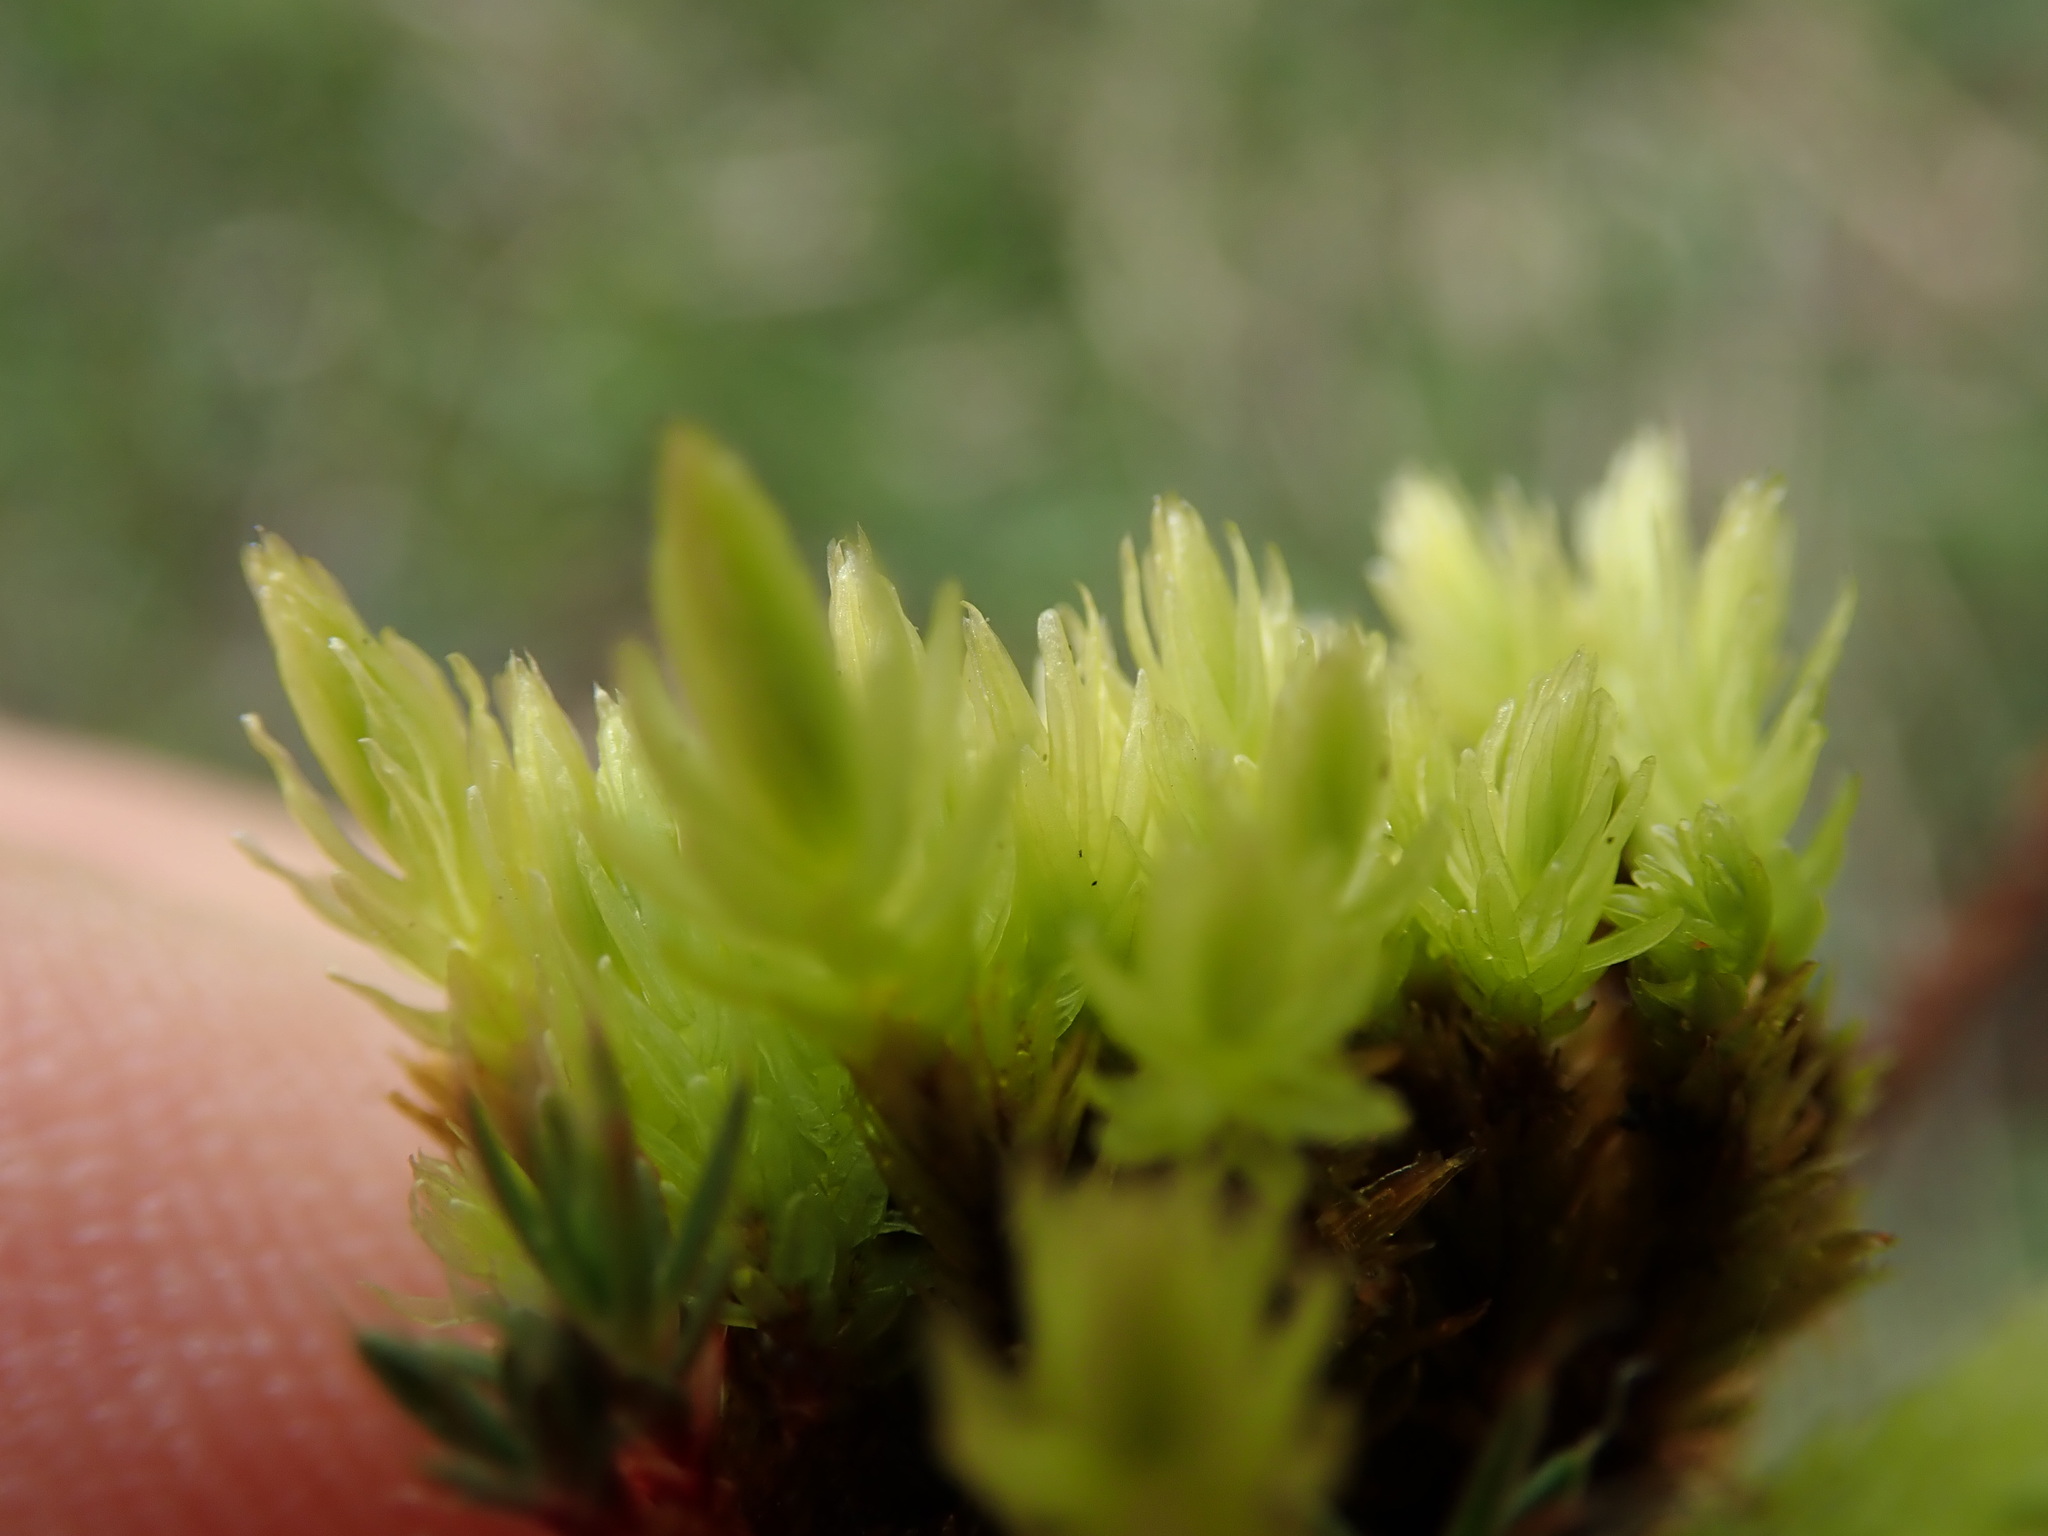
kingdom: Plantae
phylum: Bryophyta
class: Bryopsida
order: Aulacomniales
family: Aulacomniaceae
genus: Aulacomnium
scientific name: Aulacomnium palustre
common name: Bog groove-moss
